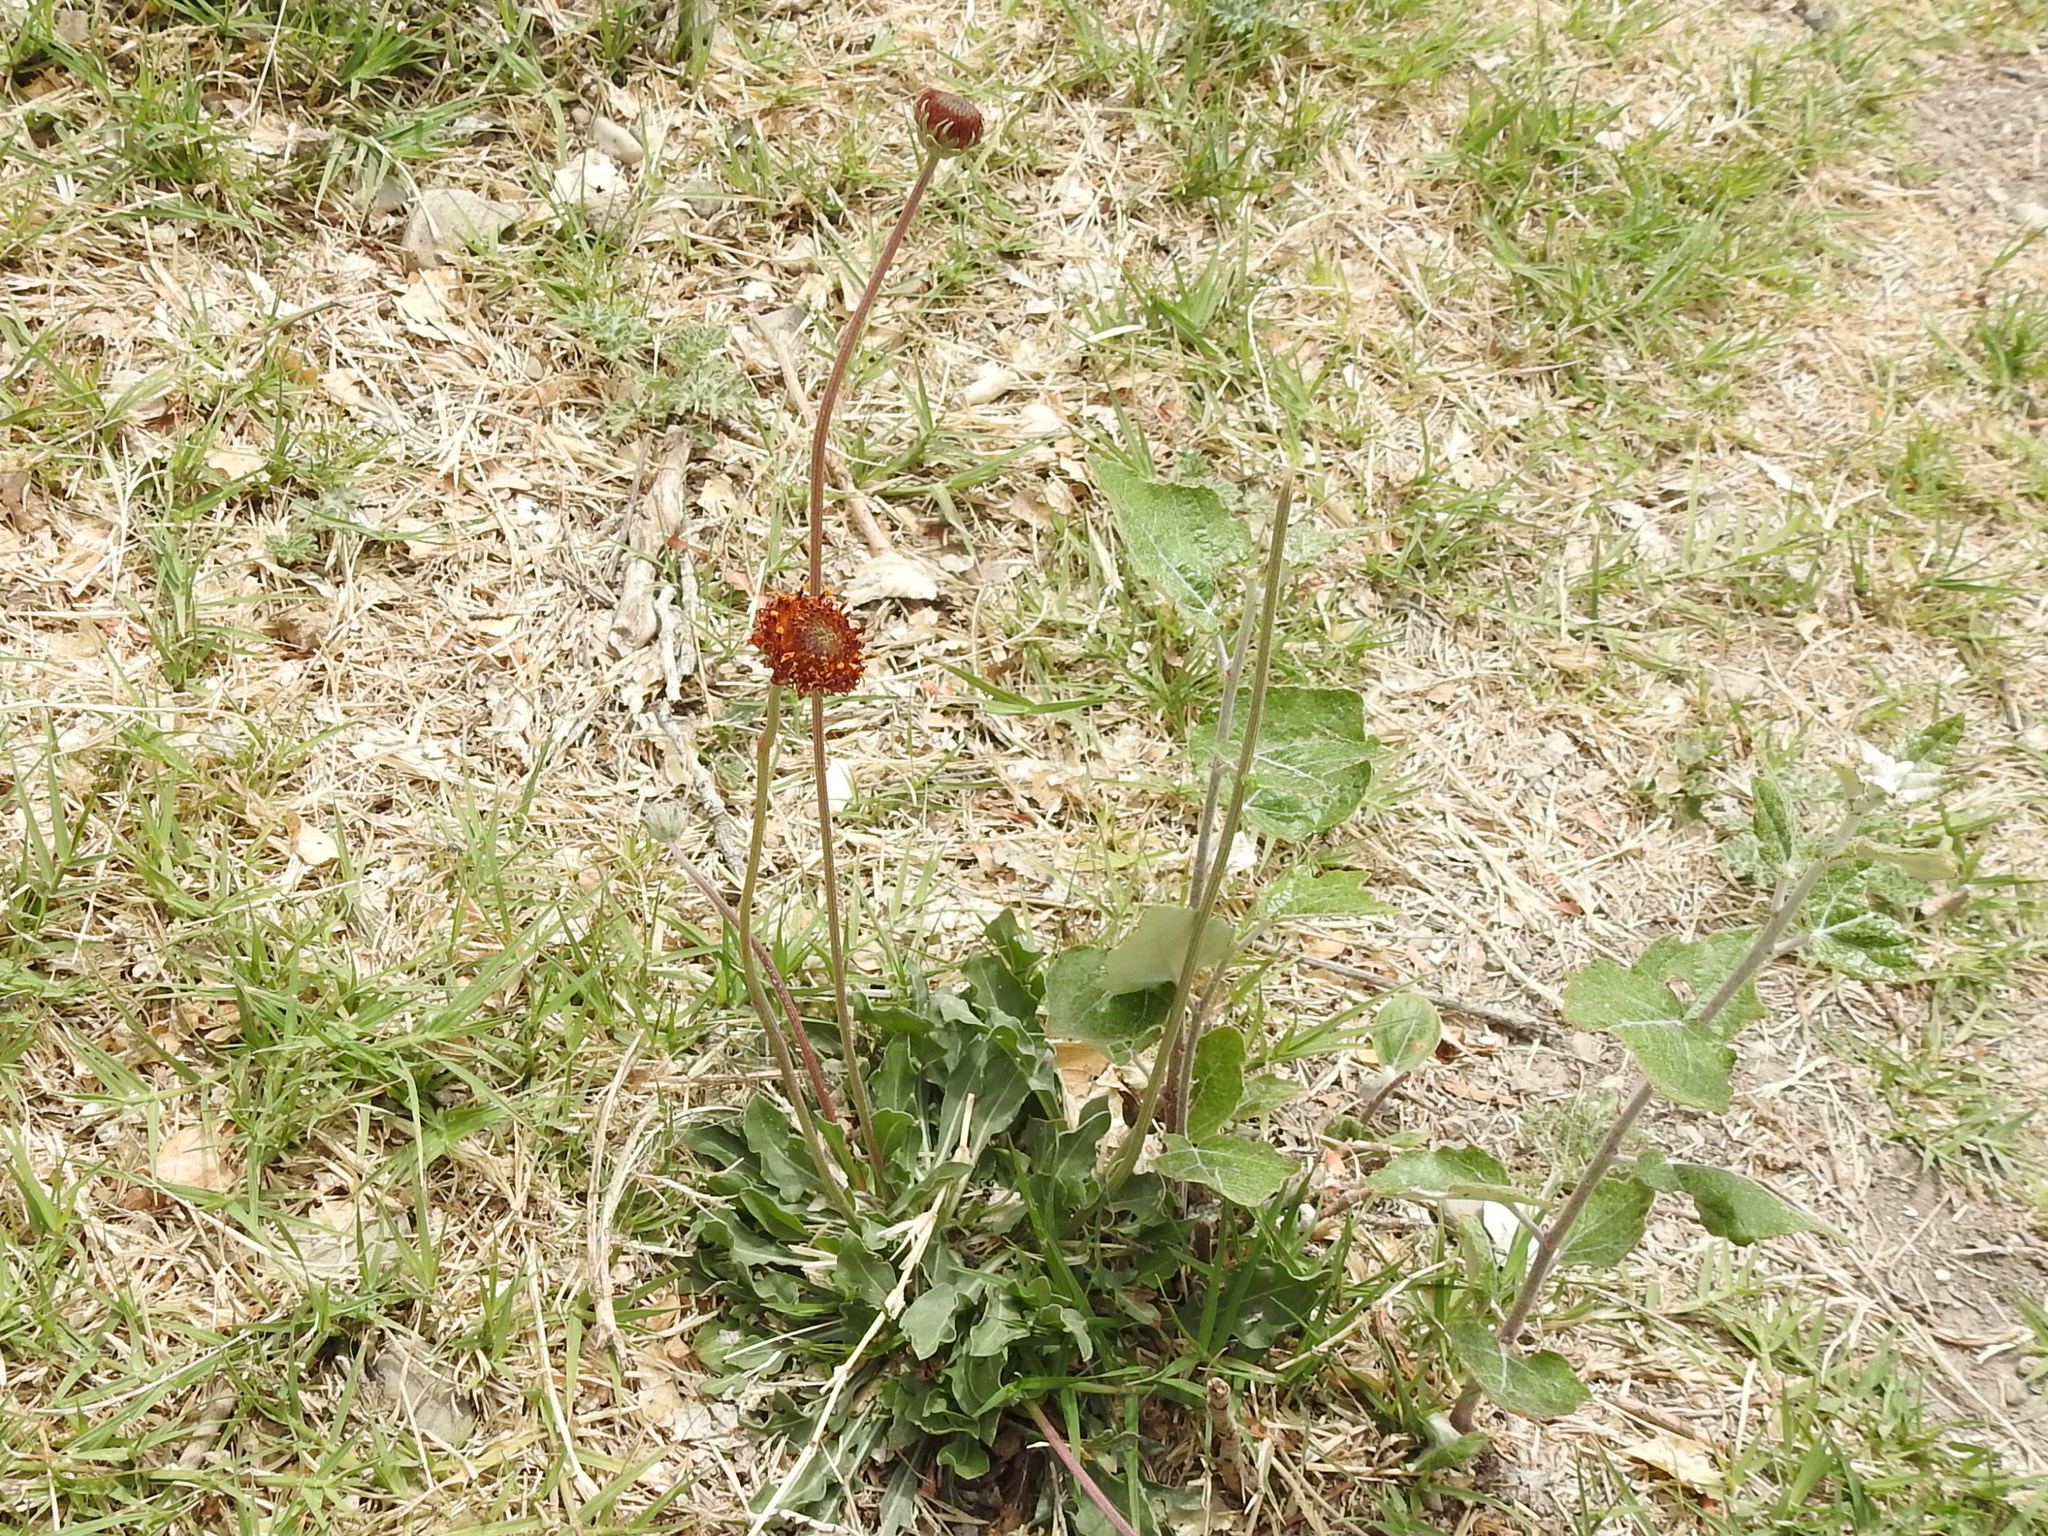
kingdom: Plantae
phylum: Tracheophyta
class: Magnoliopsida
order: Asterales
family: Asteraceae
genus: Gaillardia
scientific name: Gaillardia suavis
